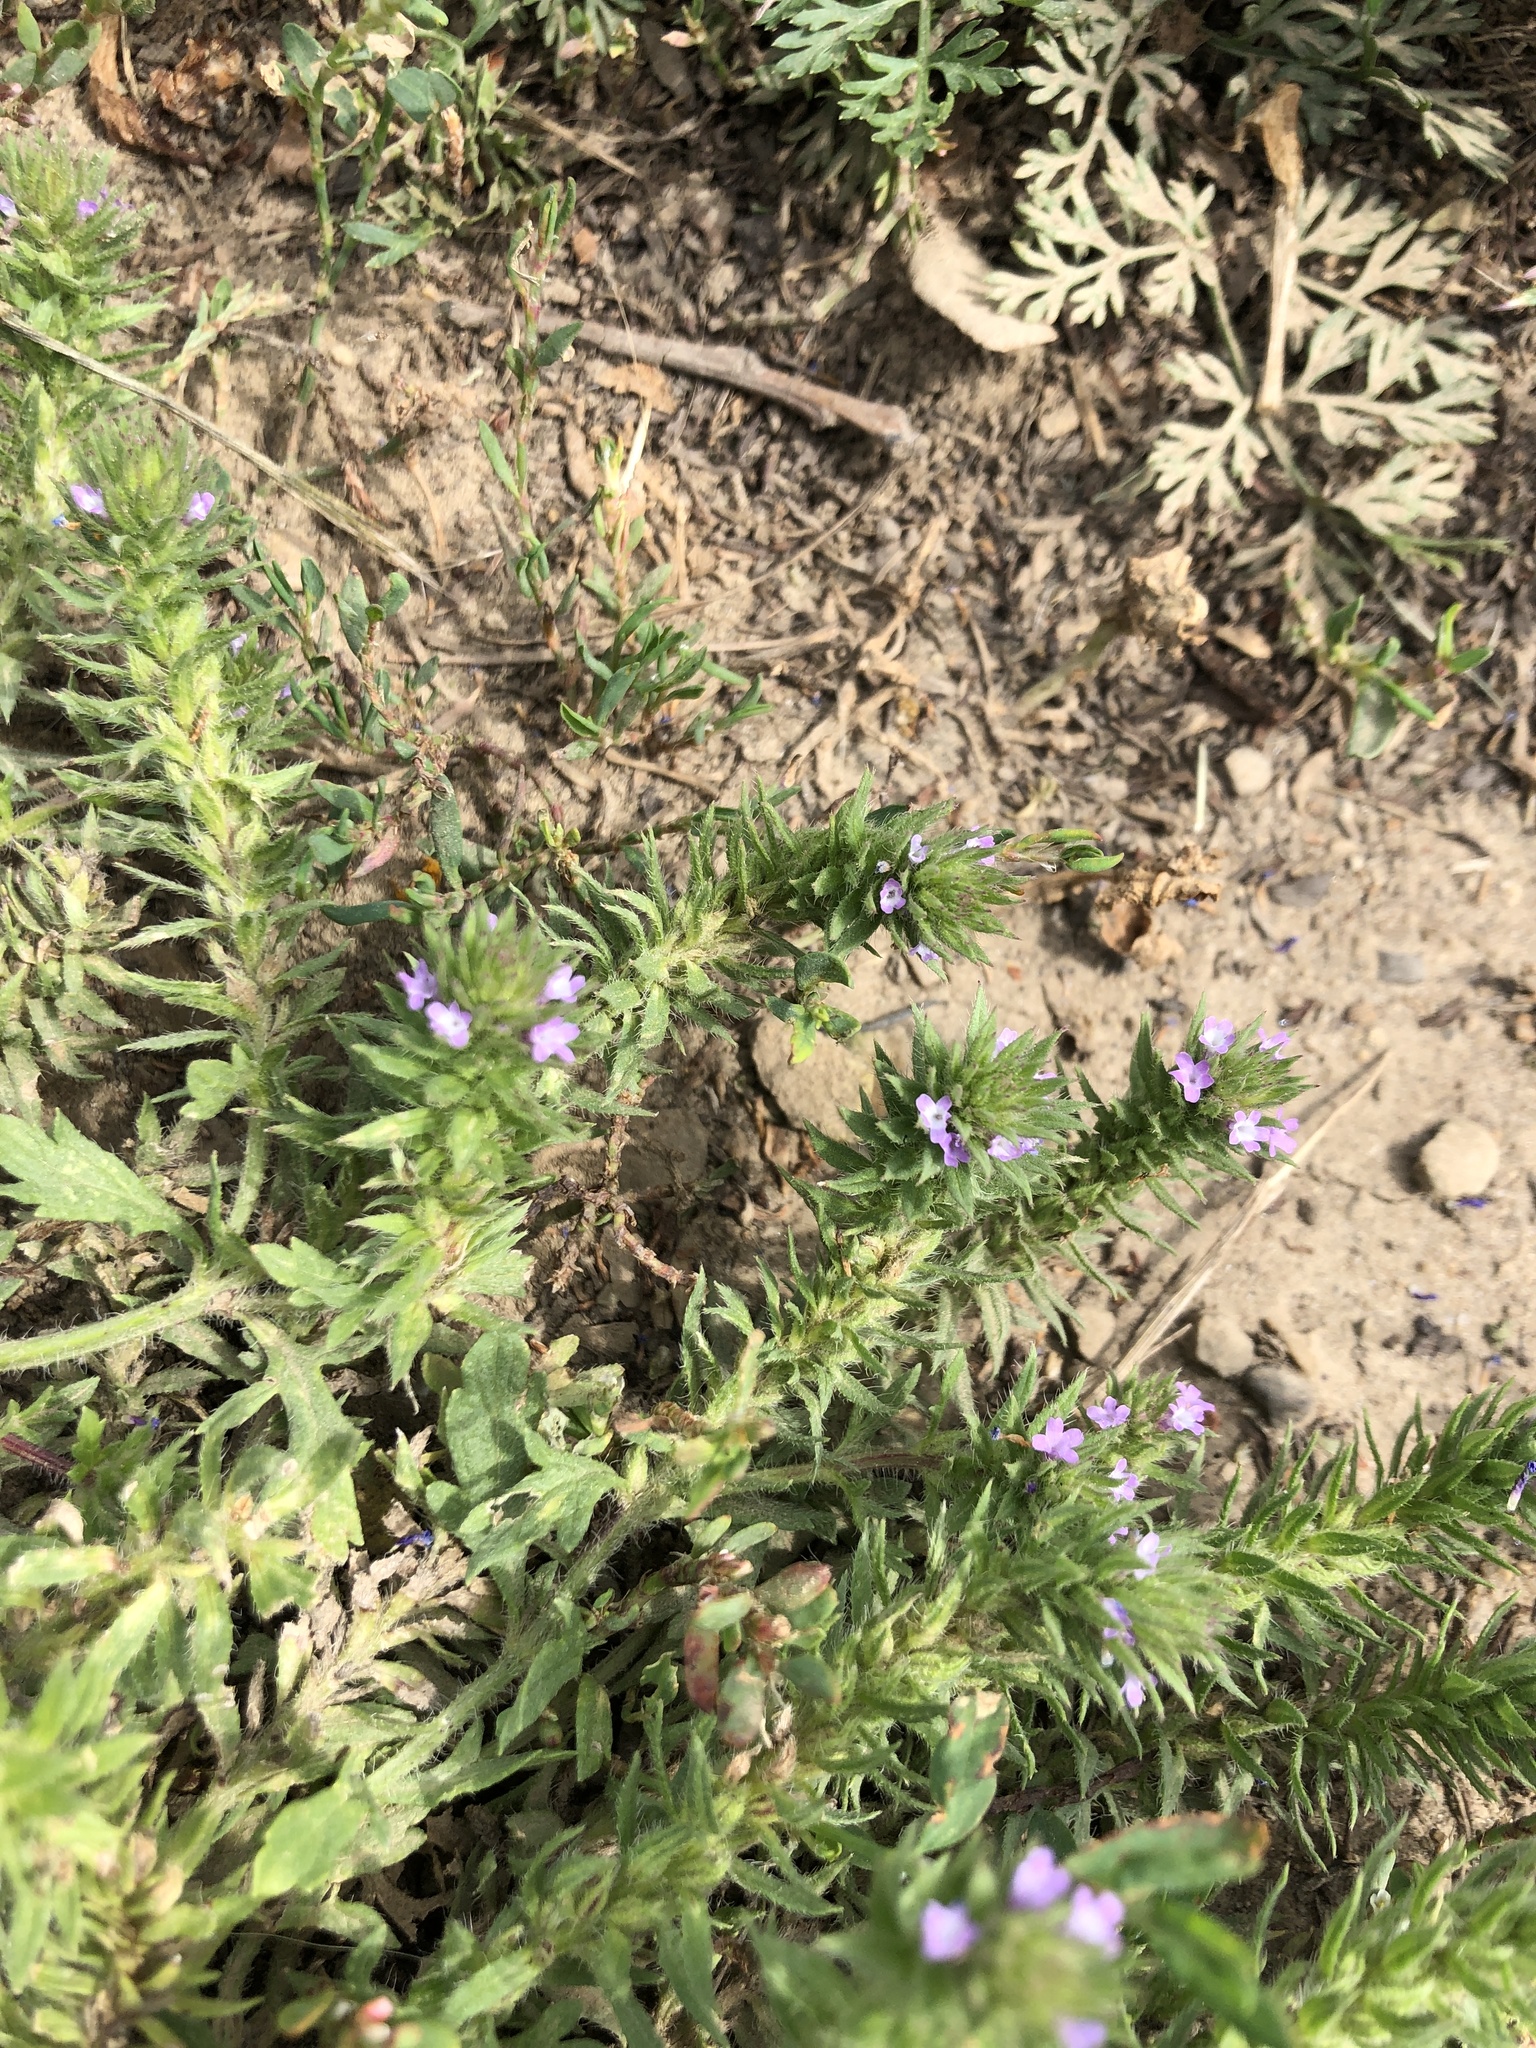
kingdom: Plantae
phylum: Tracheophyta
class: Magnoliopsida
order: Lamiales
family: Verbenaceae
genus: Verbena
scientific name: Verbena bracteata
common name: Bracted vervain
